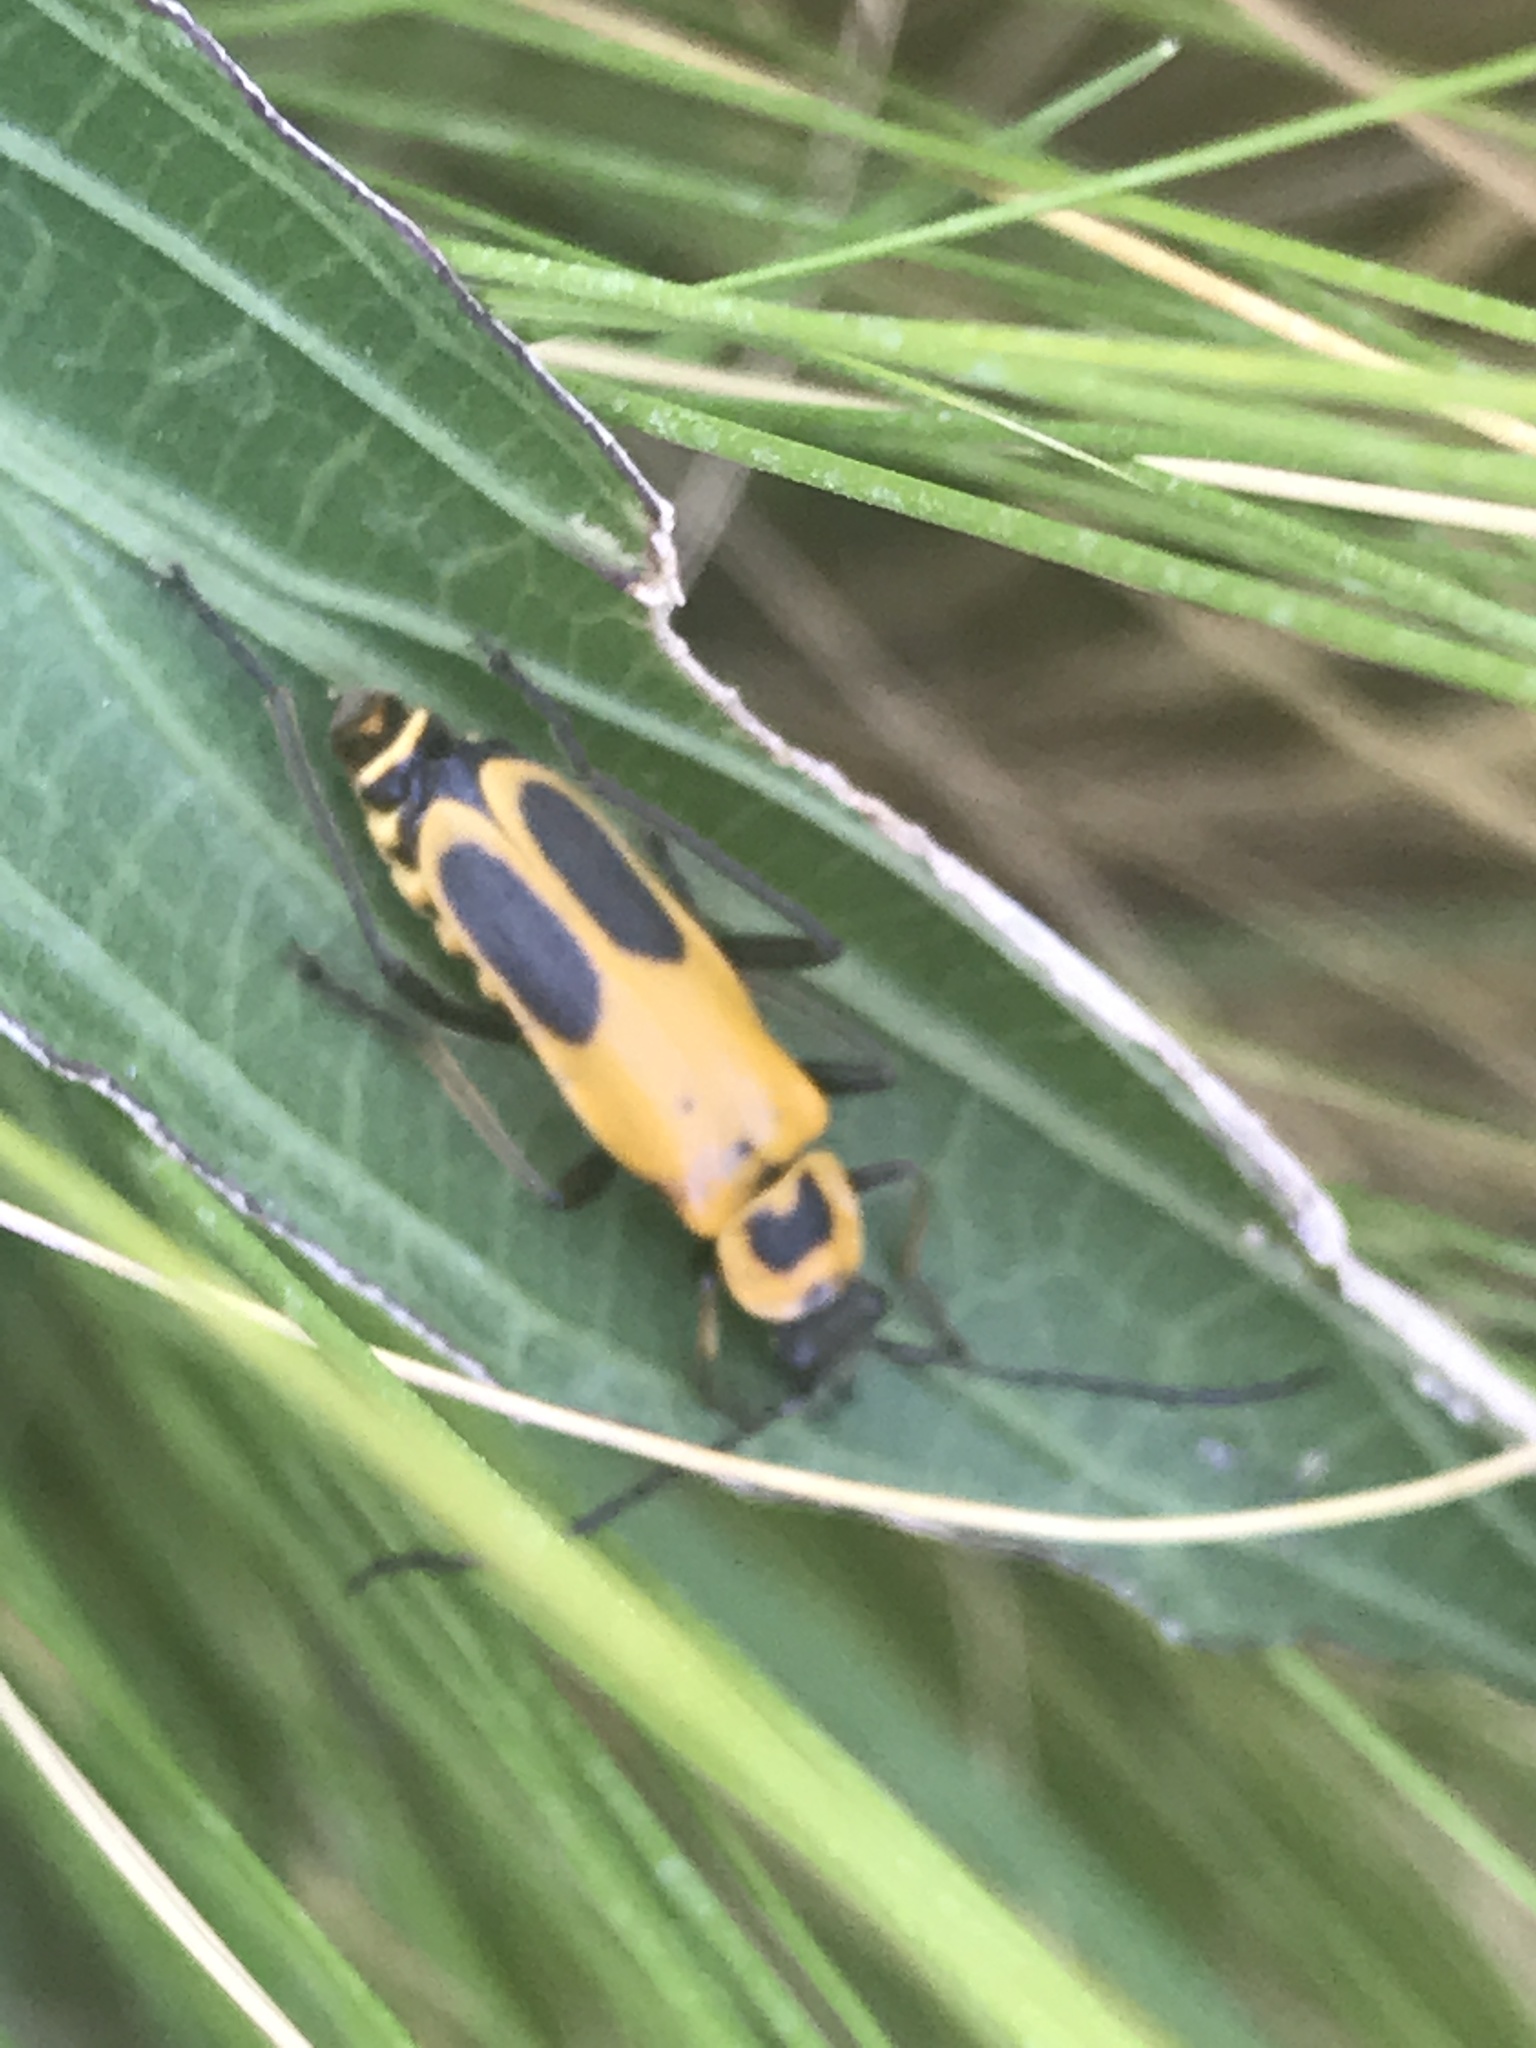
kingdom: Animalia
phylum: Arthropoda
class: Insecta
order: Coleoptera
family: Cantharidae
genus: Chauliognathus
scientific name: Chauliognathus pensylvanicus
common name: Goldenrod soldier beetle
